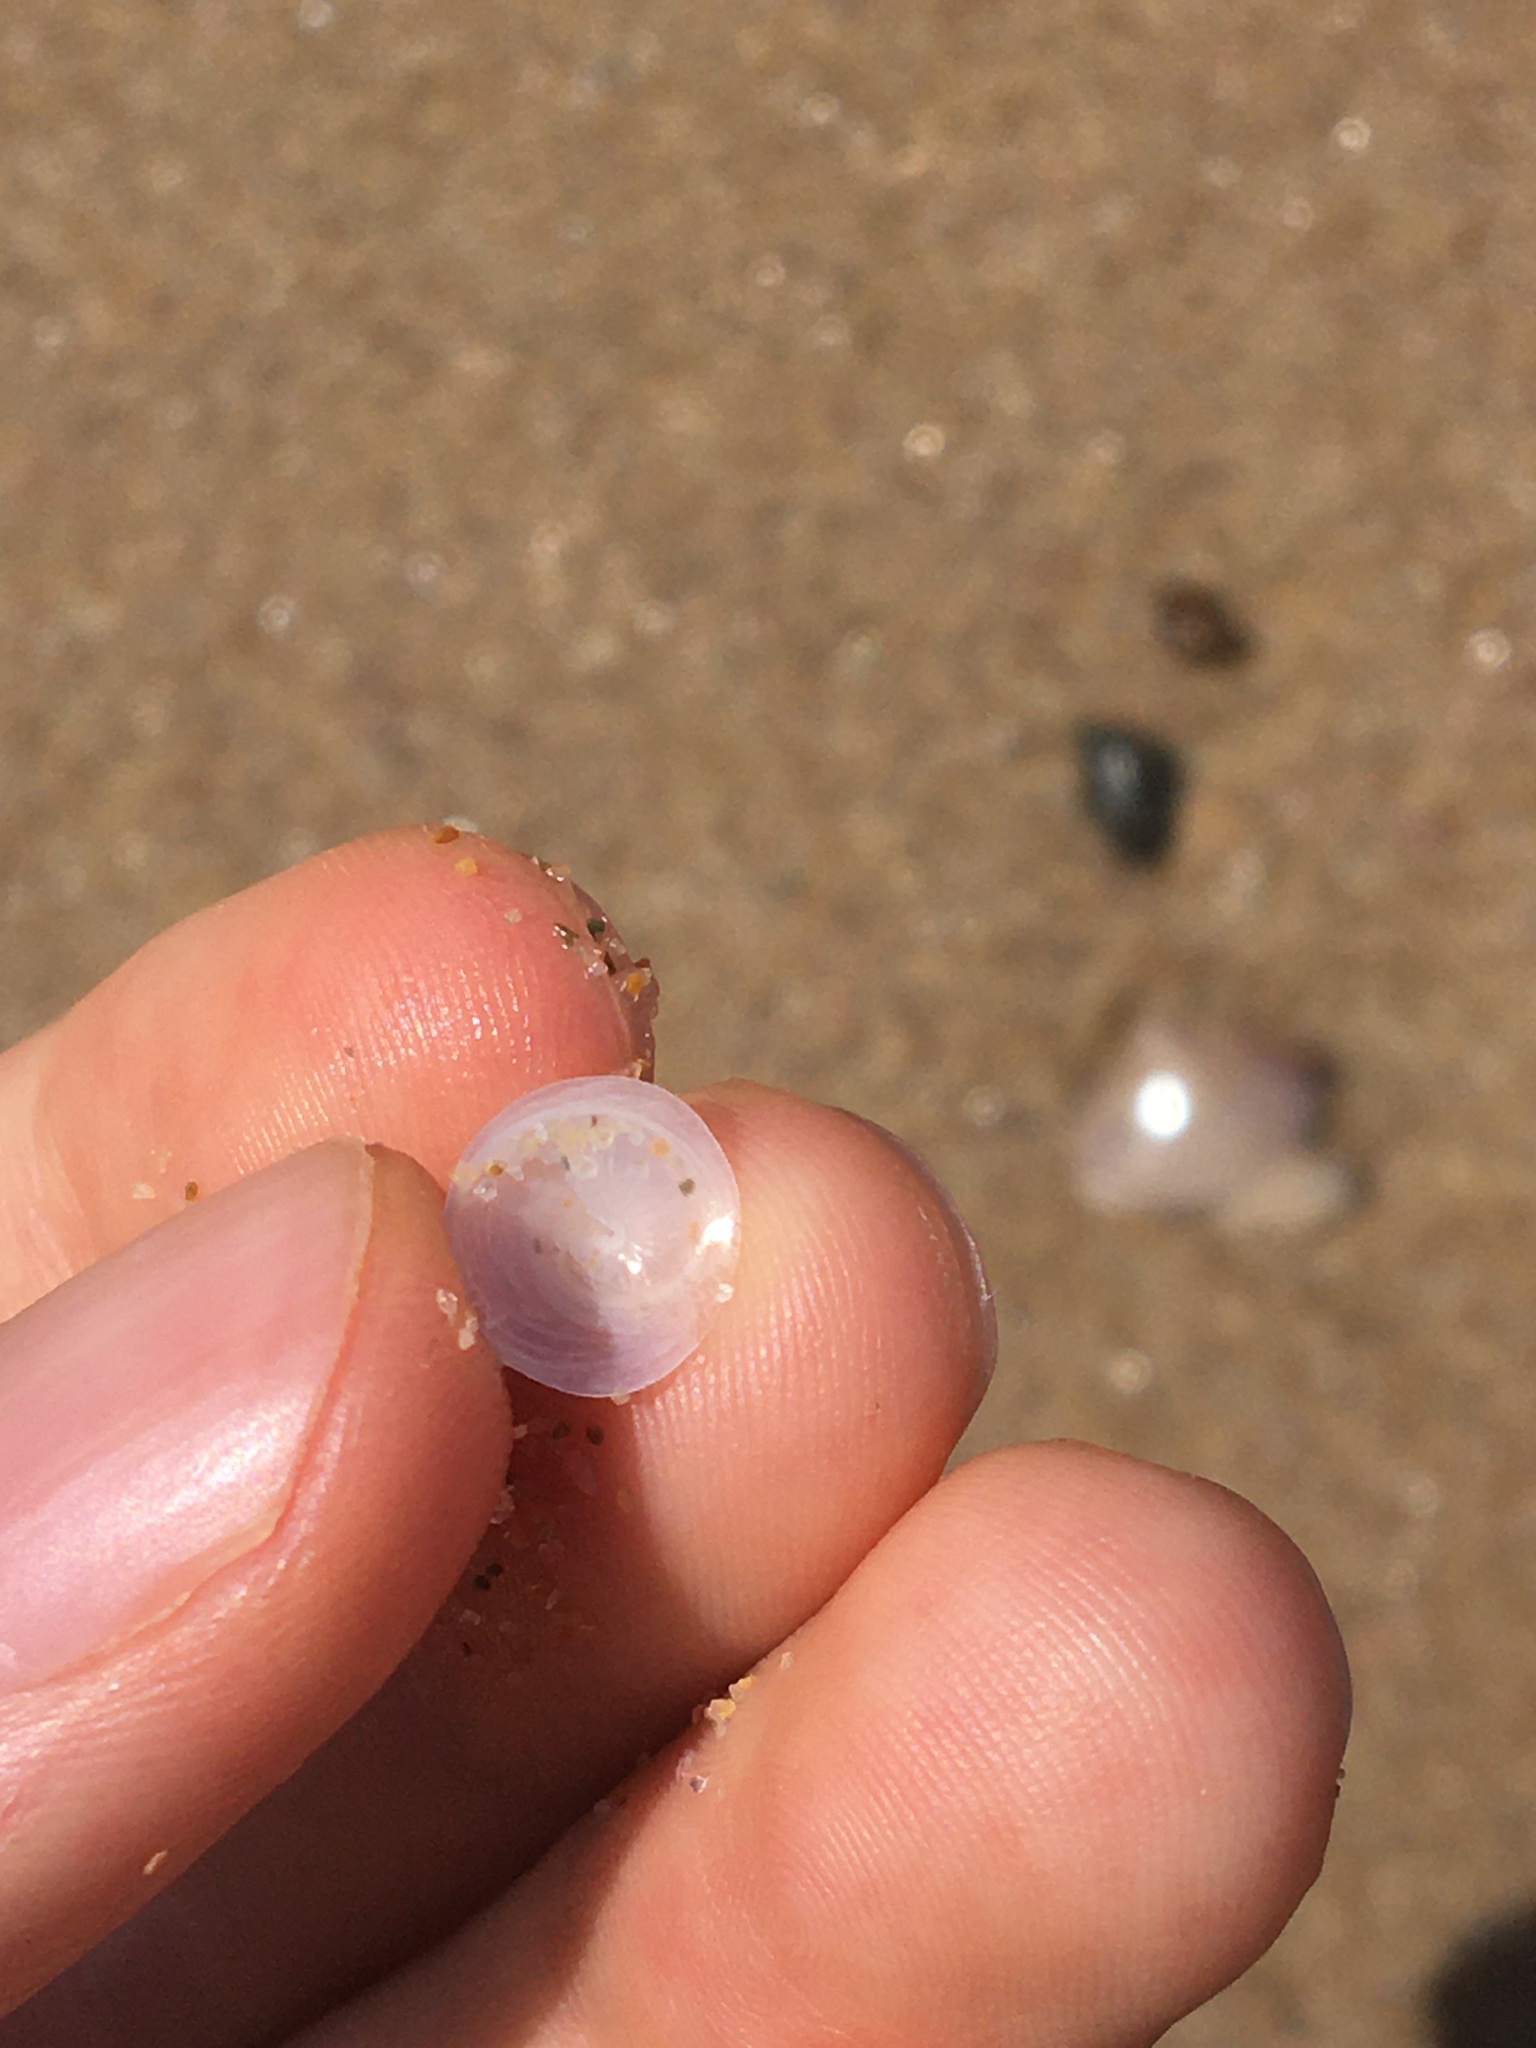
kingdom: Animalia
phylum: Mollusca
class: Gastropoda
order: Littorinimorpha
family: Calyptraeidae
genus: Sigapatella
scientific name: Sigapatella hedleyi
